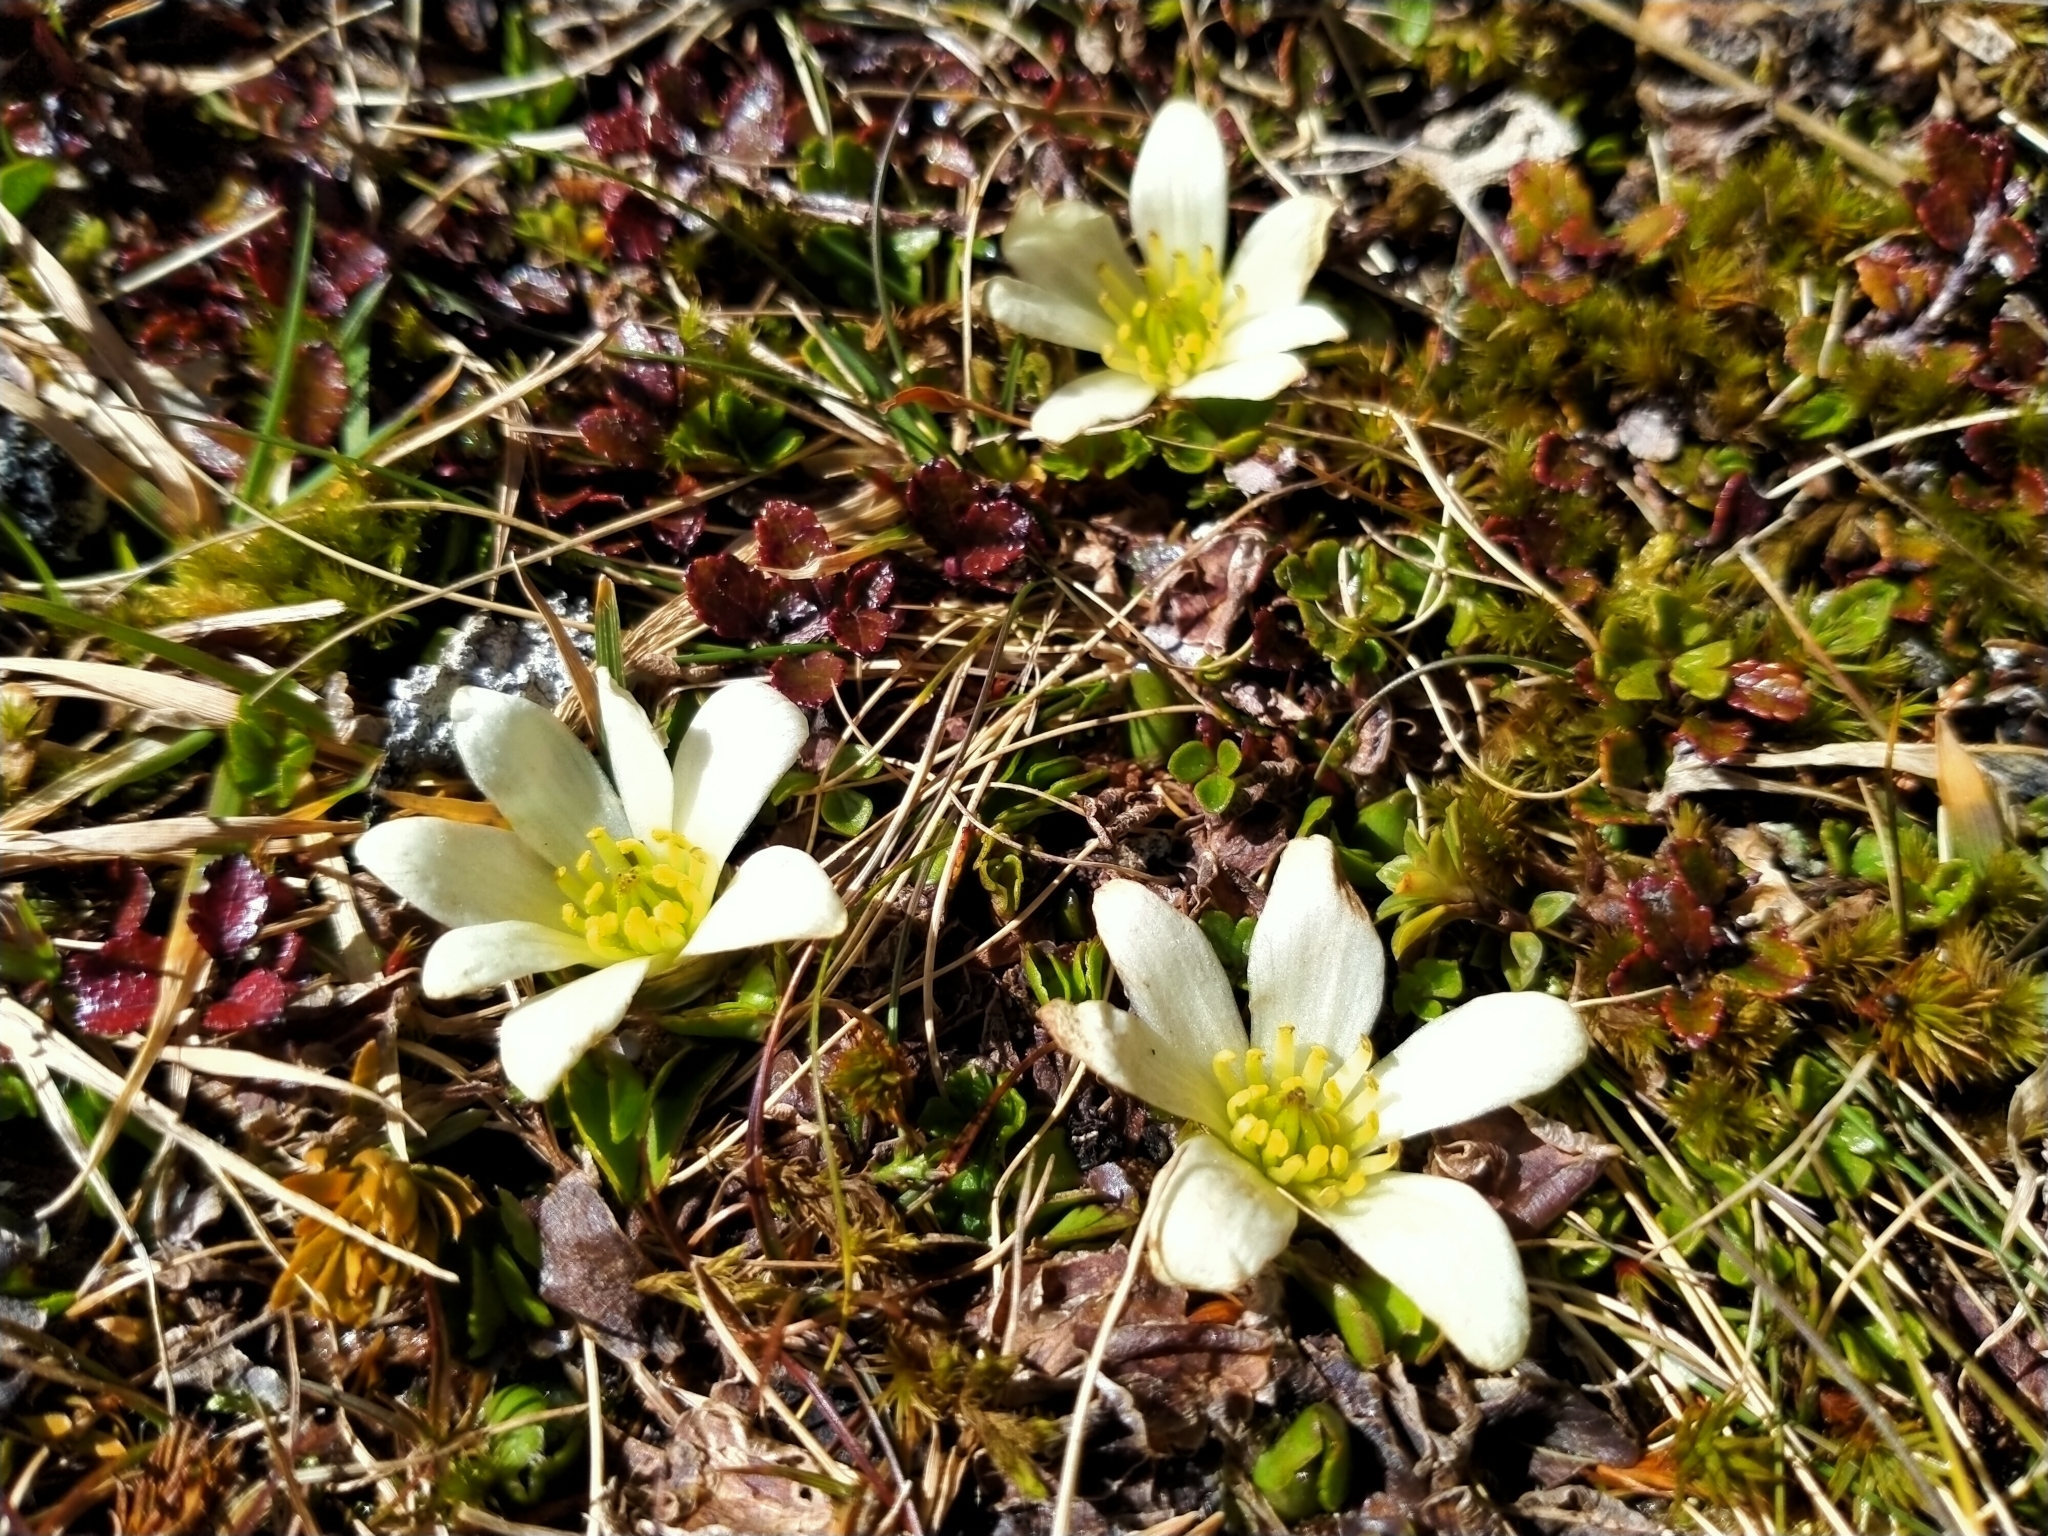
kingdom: Plantae
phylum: Tracheophyta
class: Magnoliopsida
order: Ranunculales
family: Ranunculaceae
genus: Caltha
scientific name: Caltha obtusa
